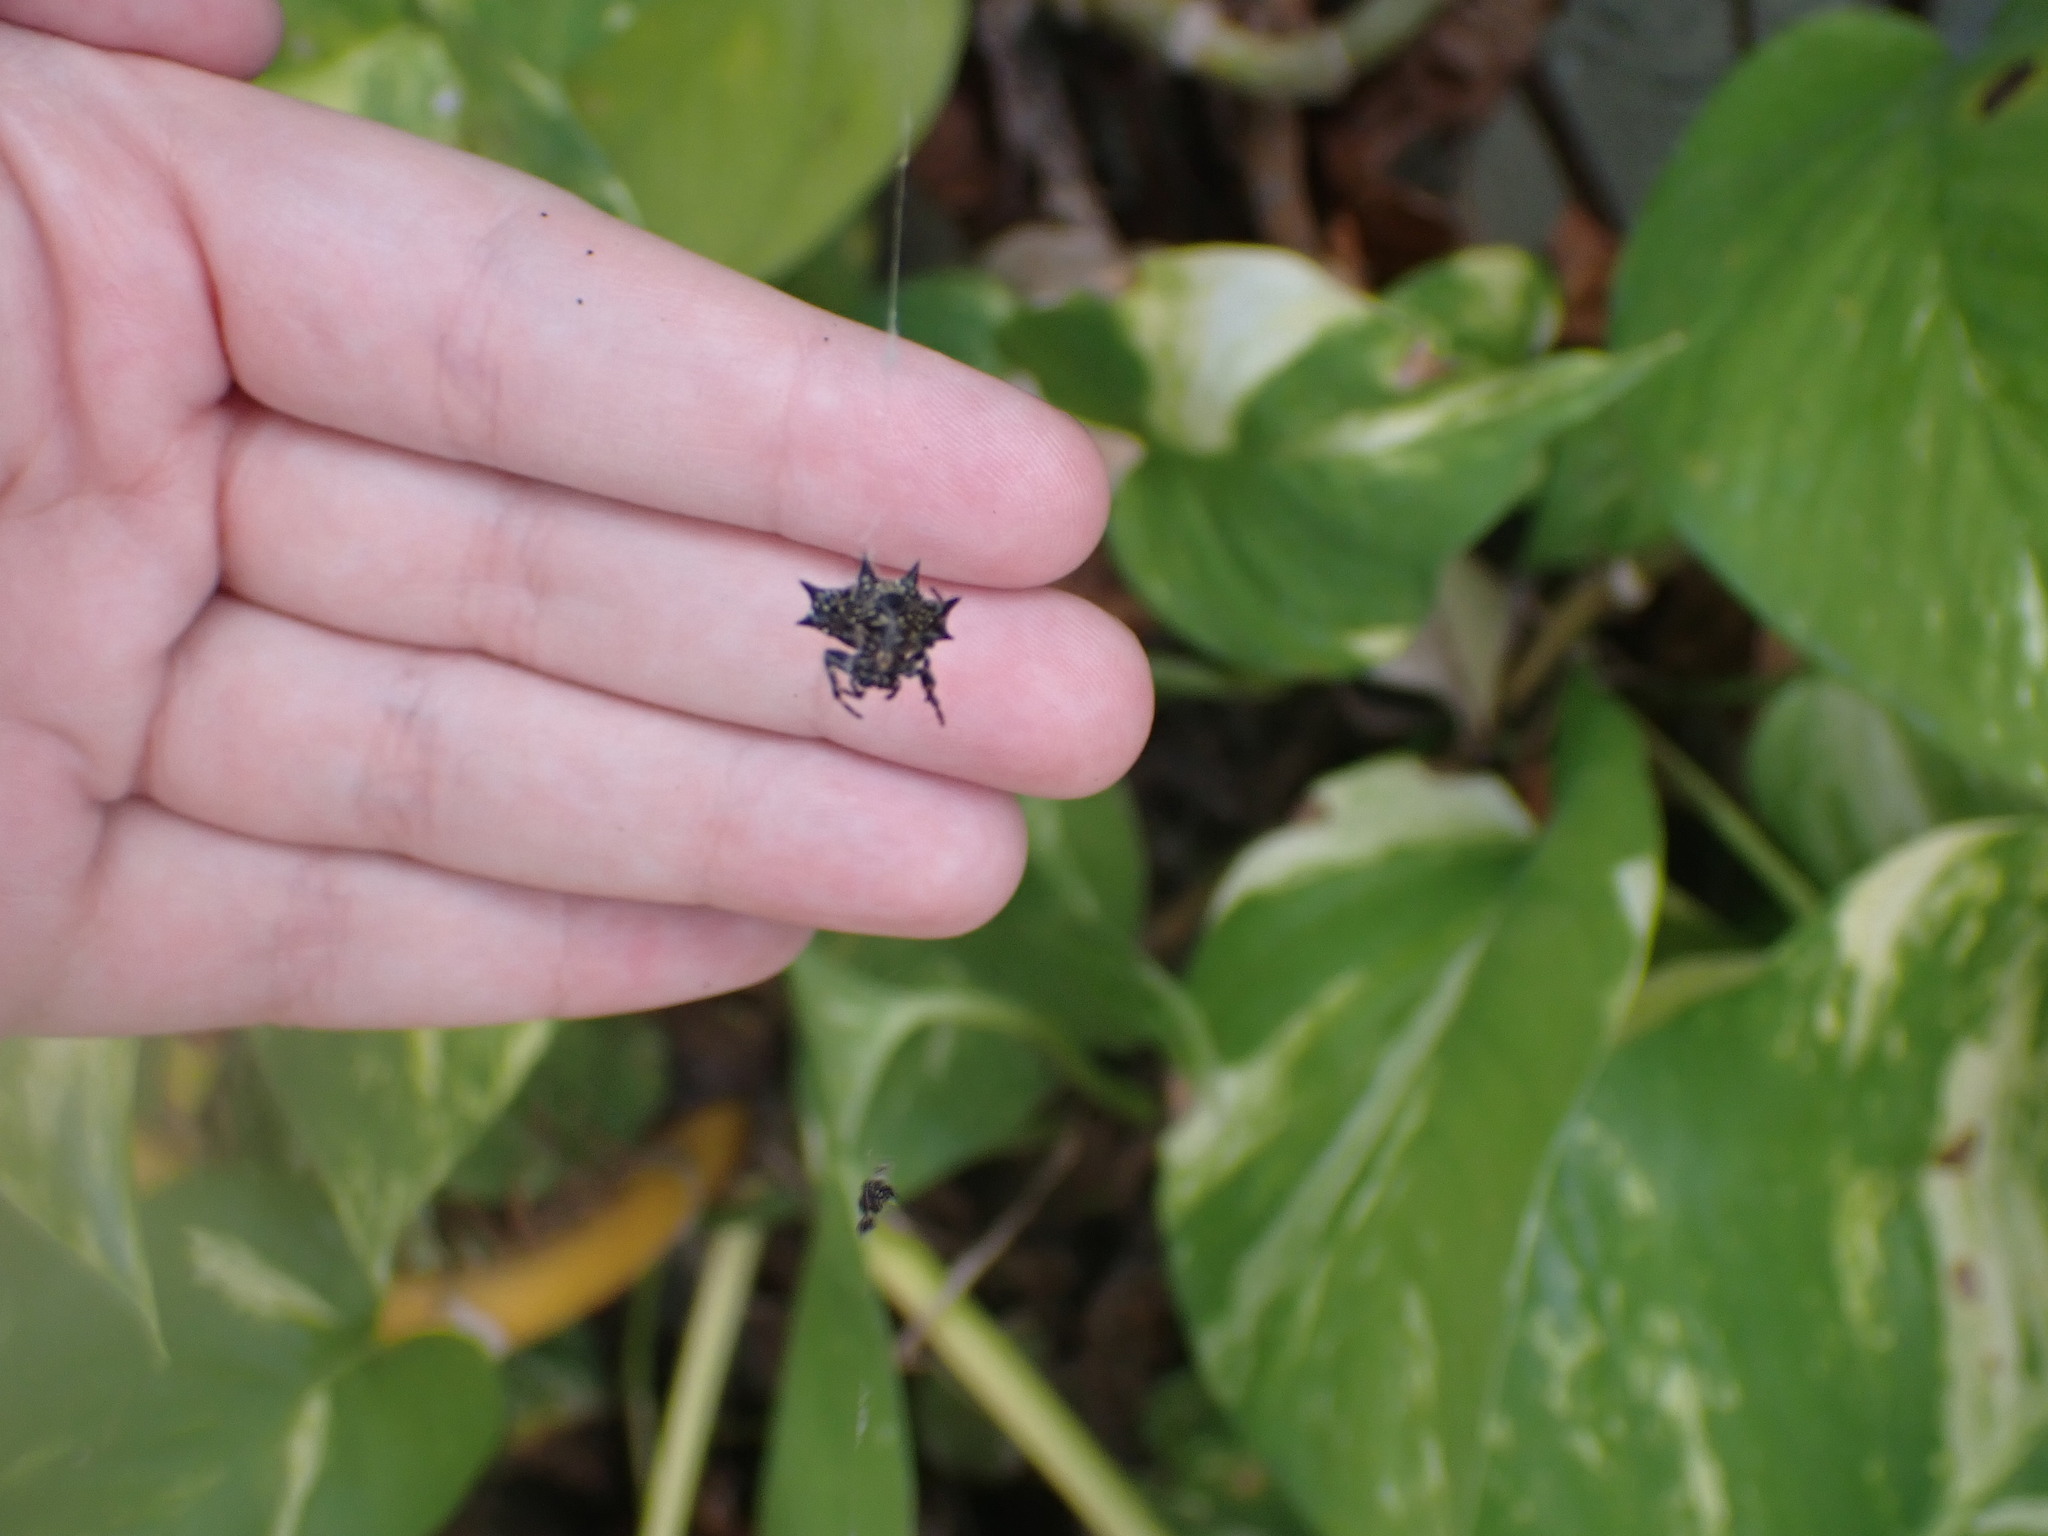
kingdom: Animalia
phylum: Arthropoda
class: Arachnida
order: Araneae
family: Araneidae
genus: Gasteracantha
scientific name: Gasteracantha cancriformis
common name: Orb weavers
